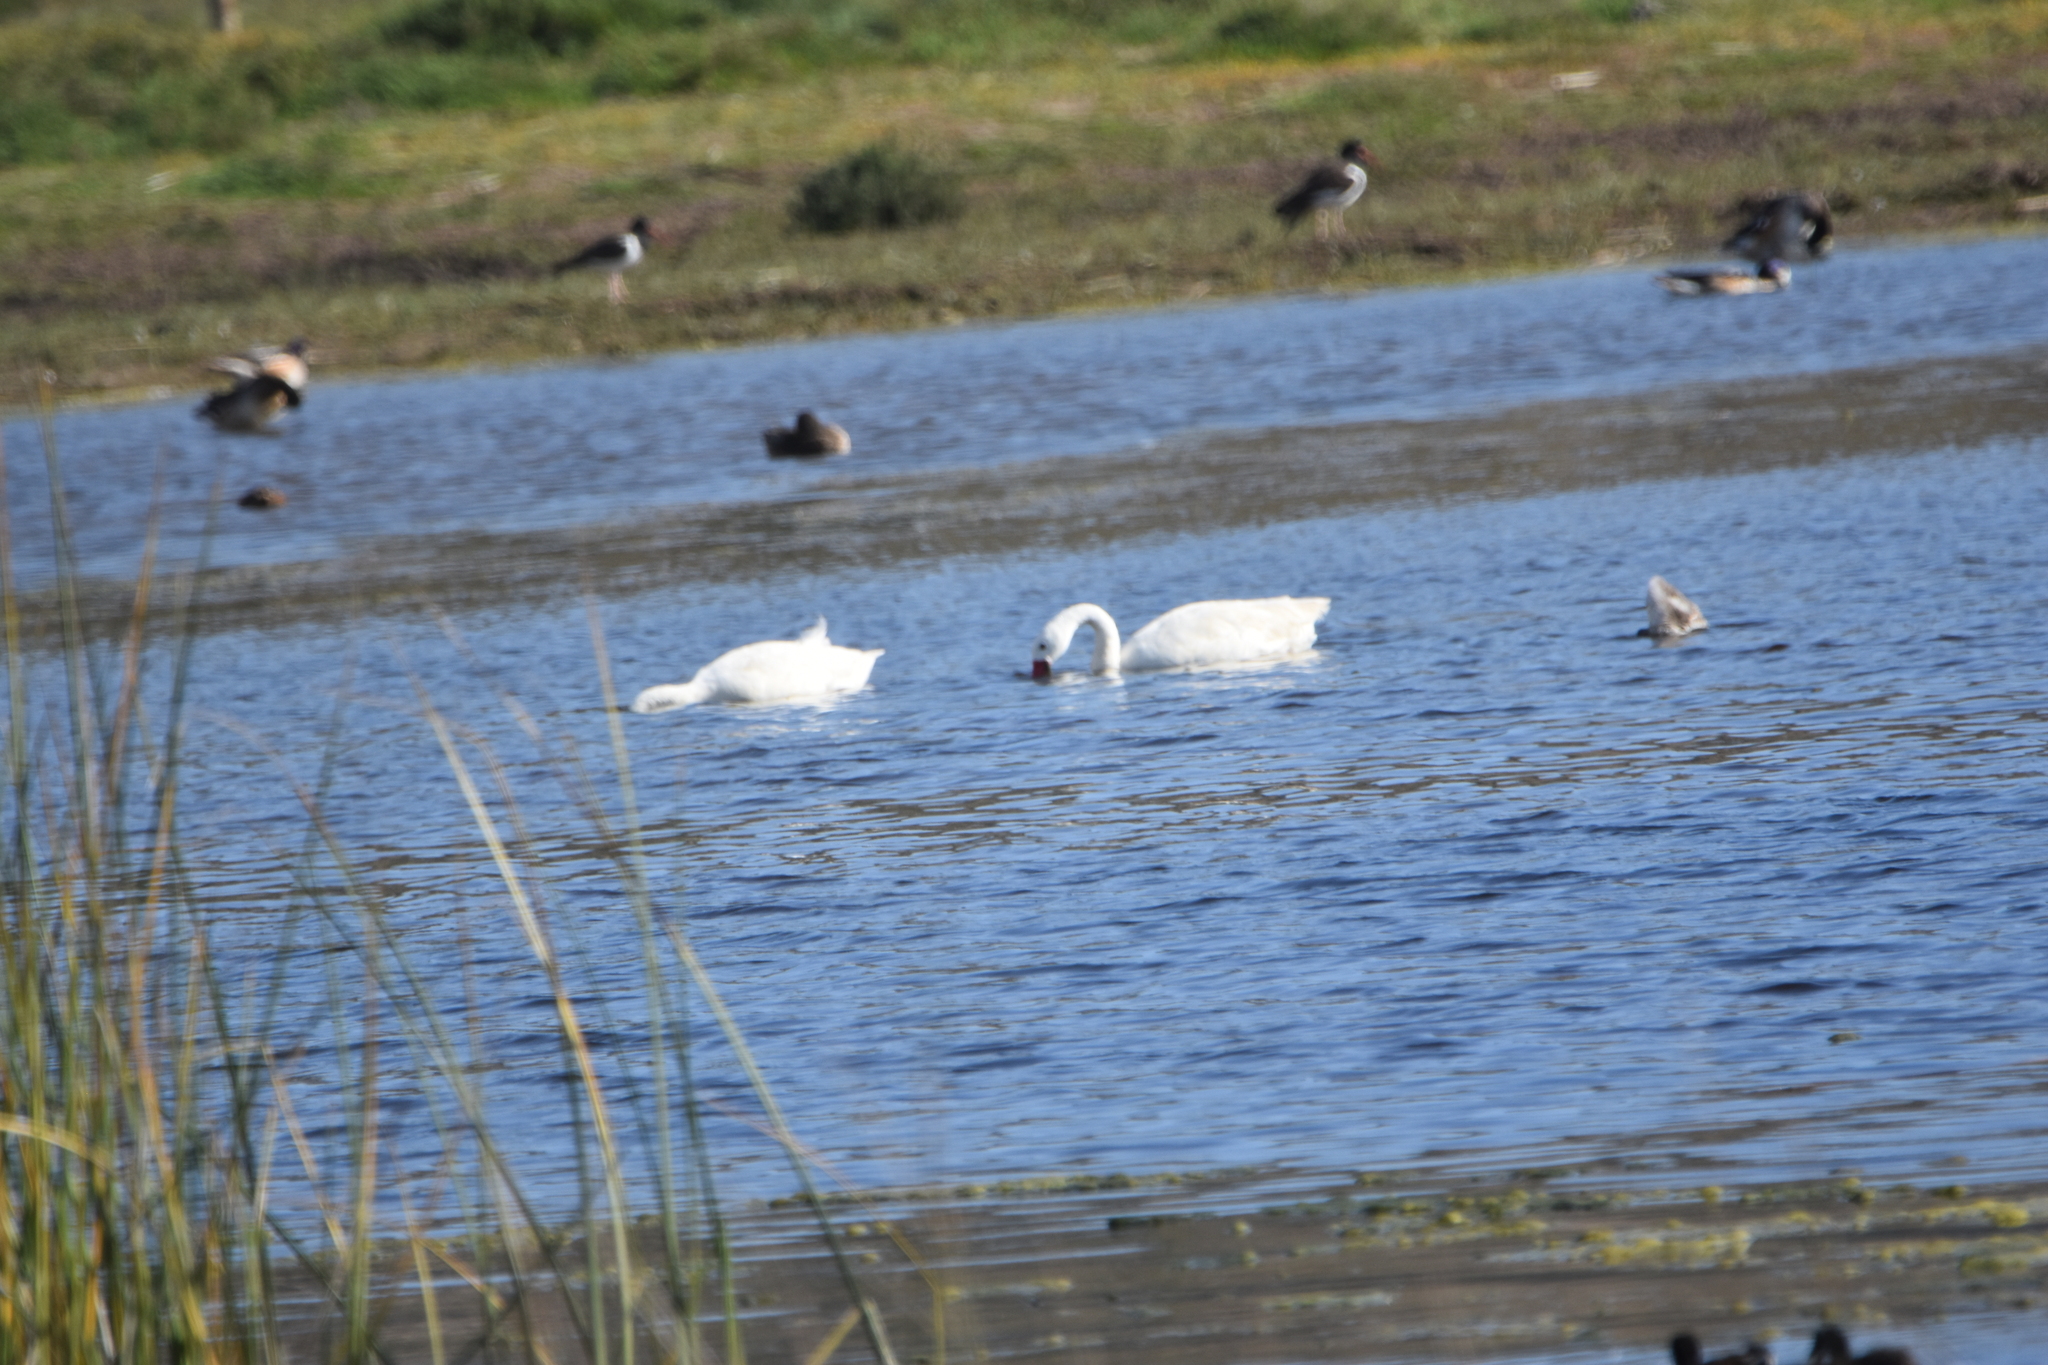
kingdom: Animalia
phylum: Chordata
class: Aves
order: Anseriformes
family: Anatidae
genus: Coscoroba
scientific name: Coscoroba coscoroba
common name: Coscoroba swan
